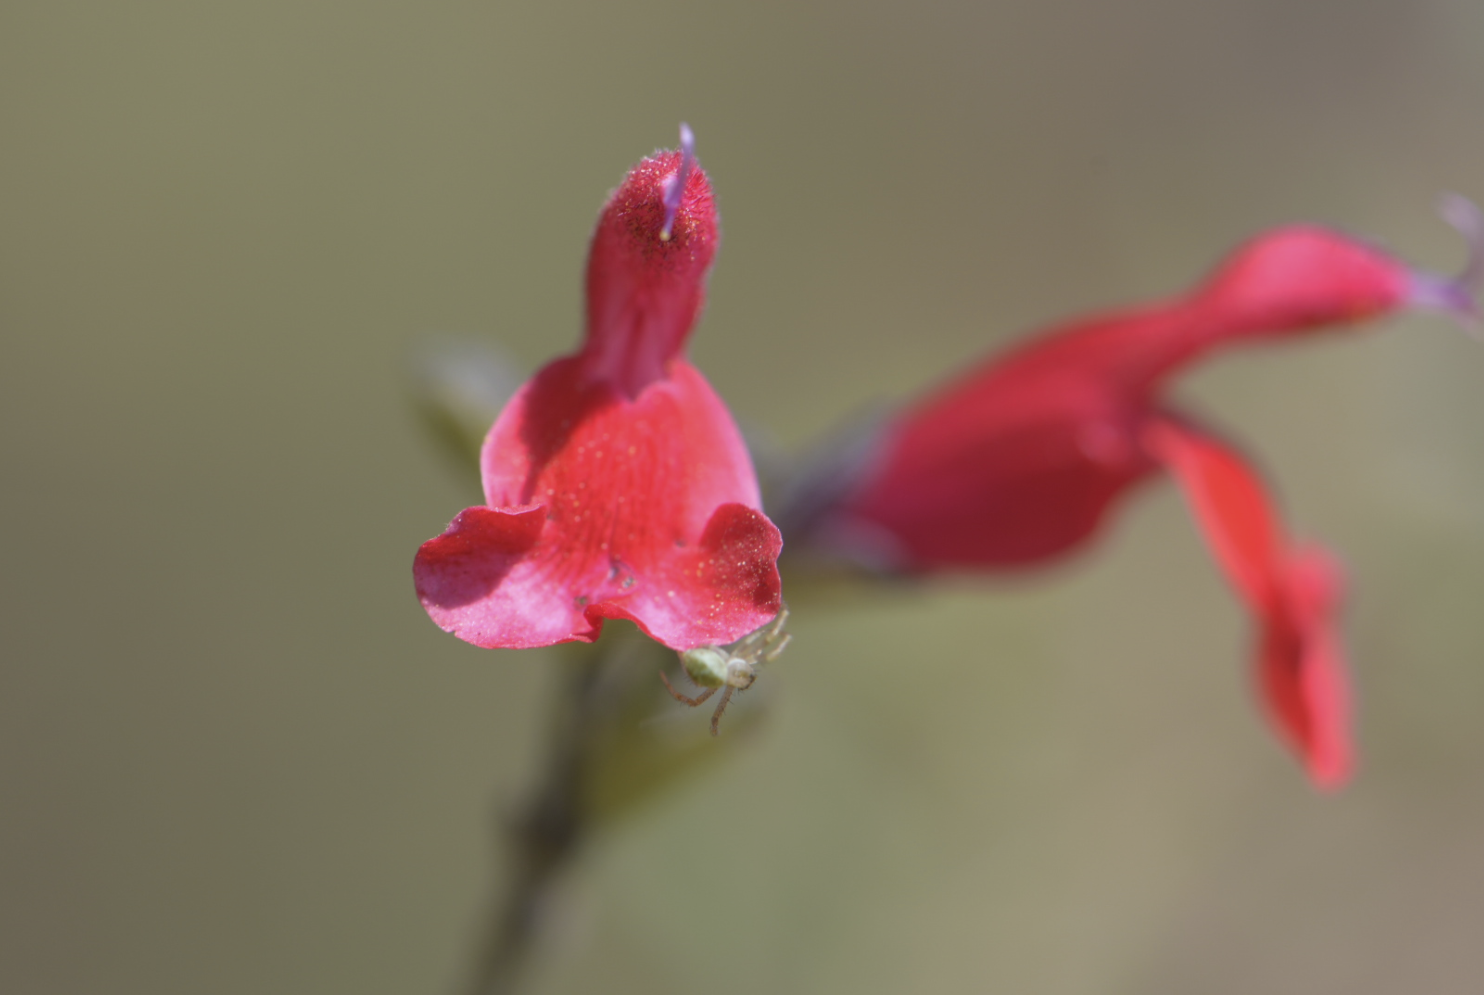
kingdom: Plantae
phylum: Tracheophyta
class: Magnoliopsida
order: Lamiales
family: Lamiaceae
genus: Salvia
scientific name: Salvia microphylla
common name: Baby sage
